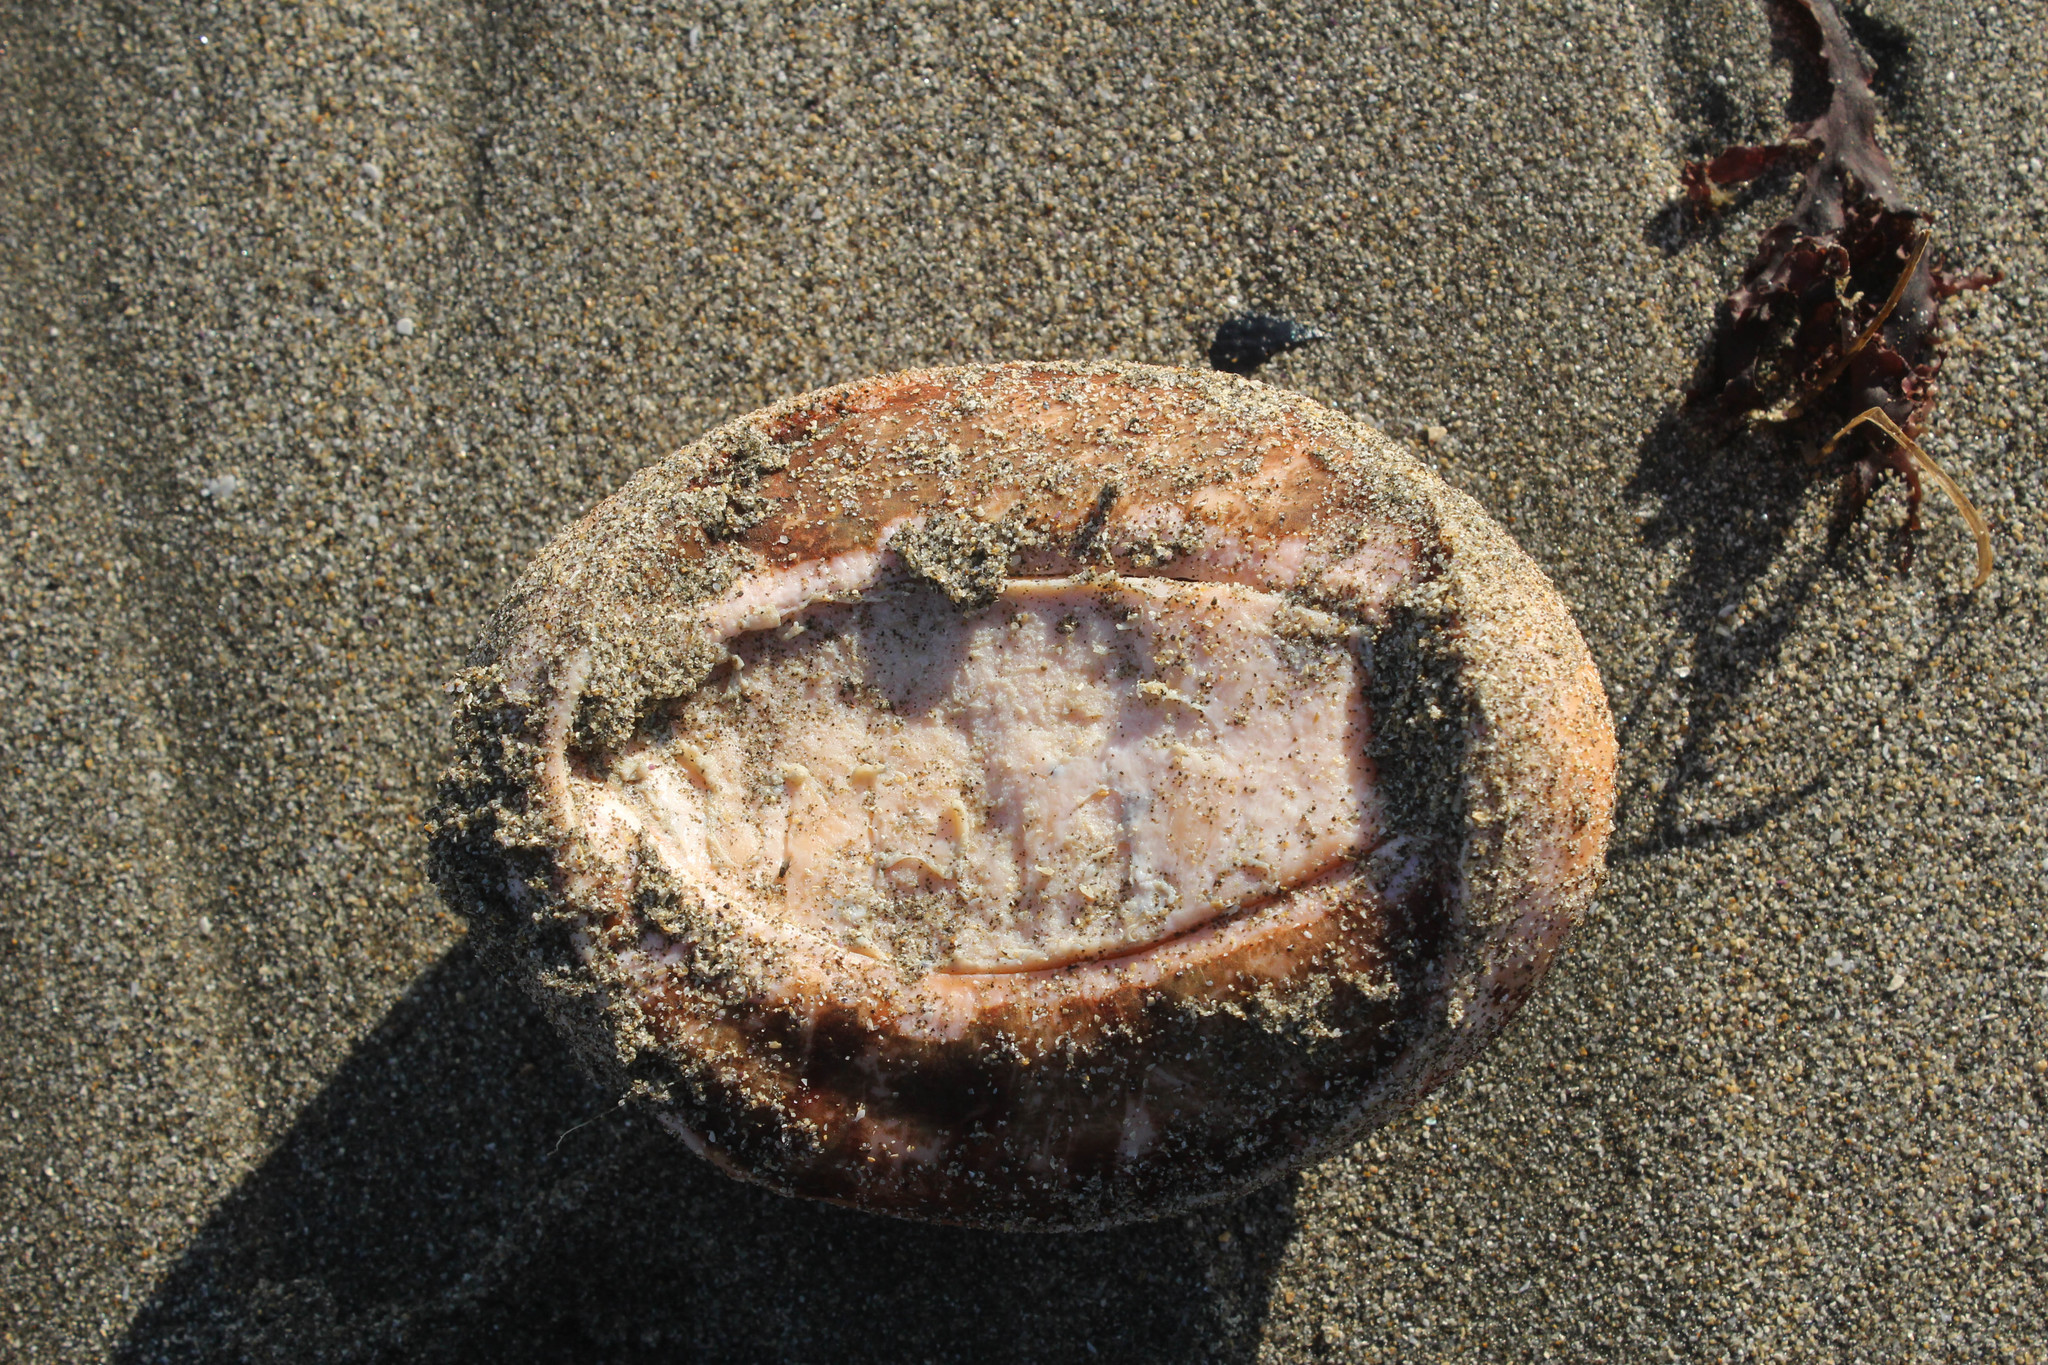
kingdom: Animalia
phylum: Mollusca
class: Polyplacophora
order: Chitonida
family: Acanthochitonidae
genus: Cryptochiton
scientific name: Cryptochiton stelleri
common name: Giant pacific chiton
